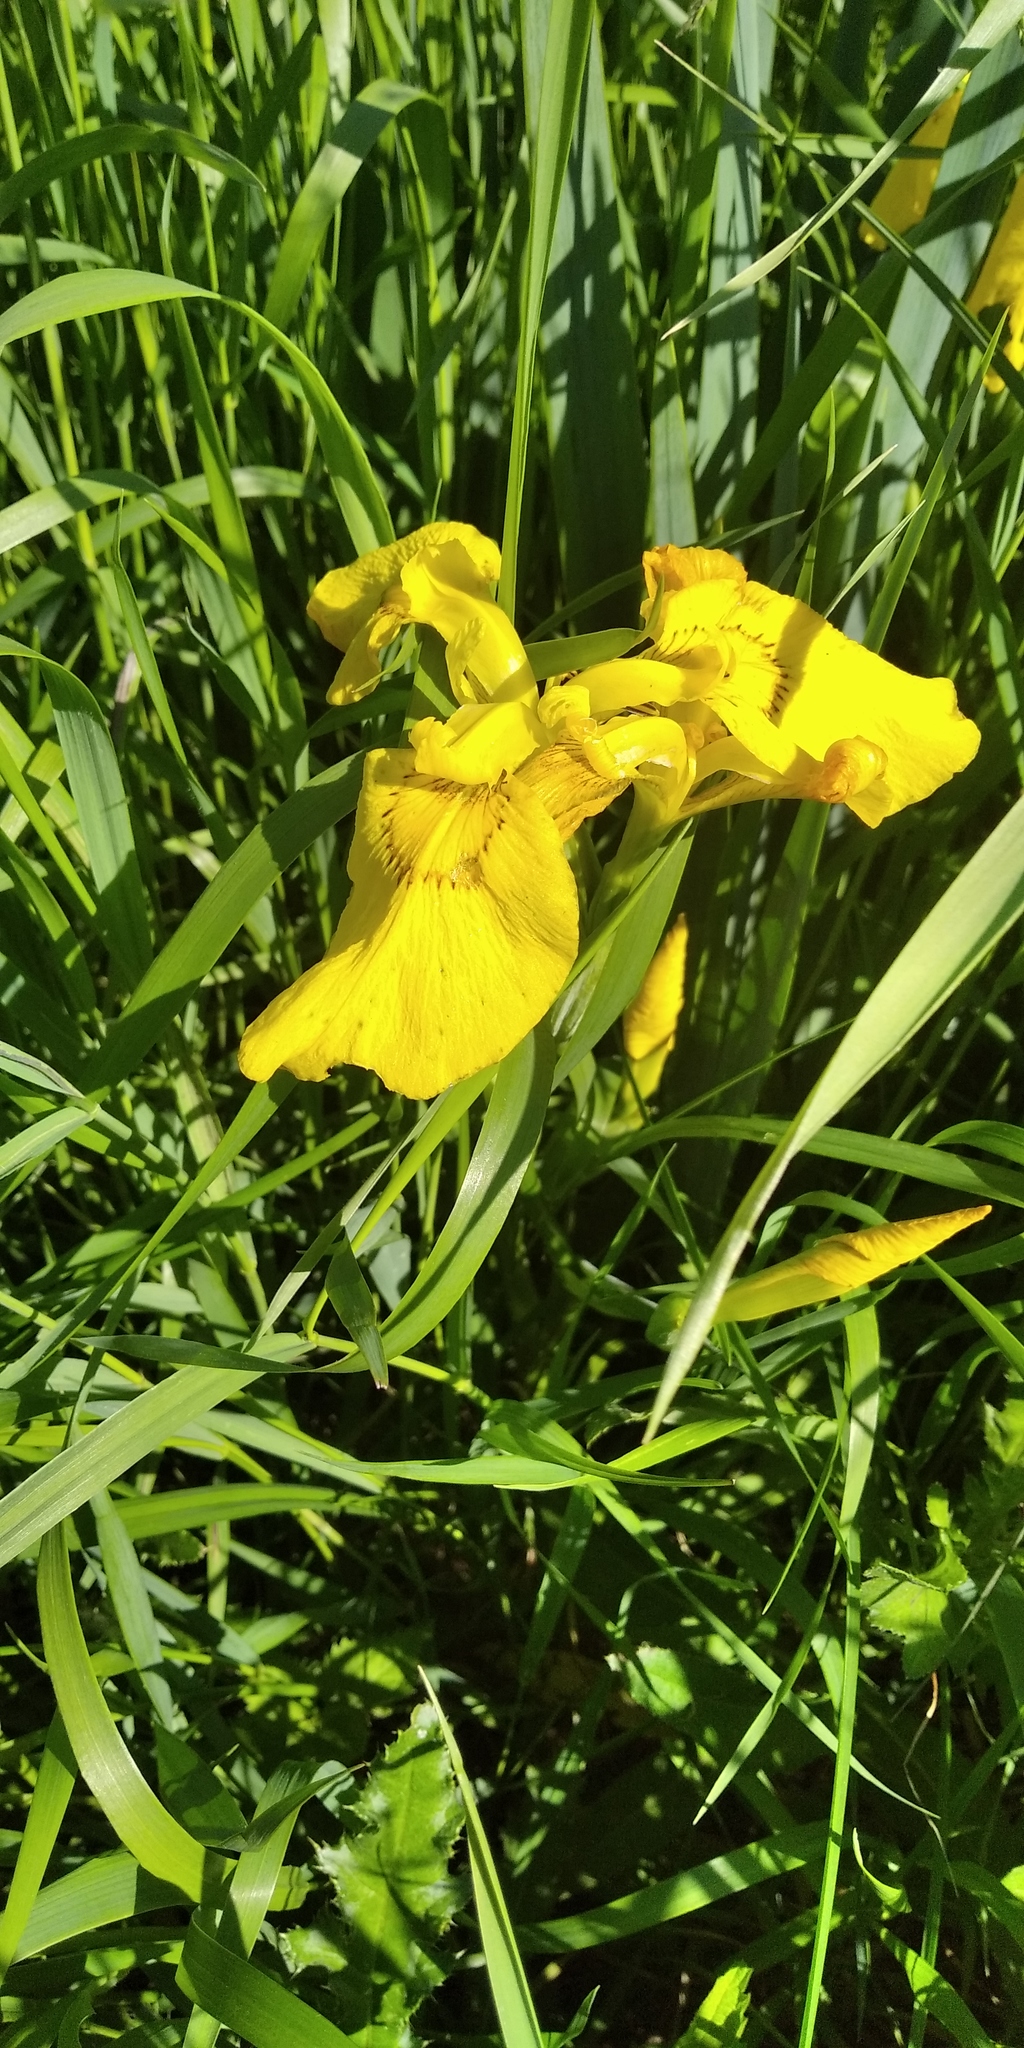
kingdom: Plantae
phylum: Tracheophyta
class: Liliopsida
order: Asparagales
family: Iridaceae
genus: Iris
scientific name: Iris pseudacorus
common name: Yellow flag
